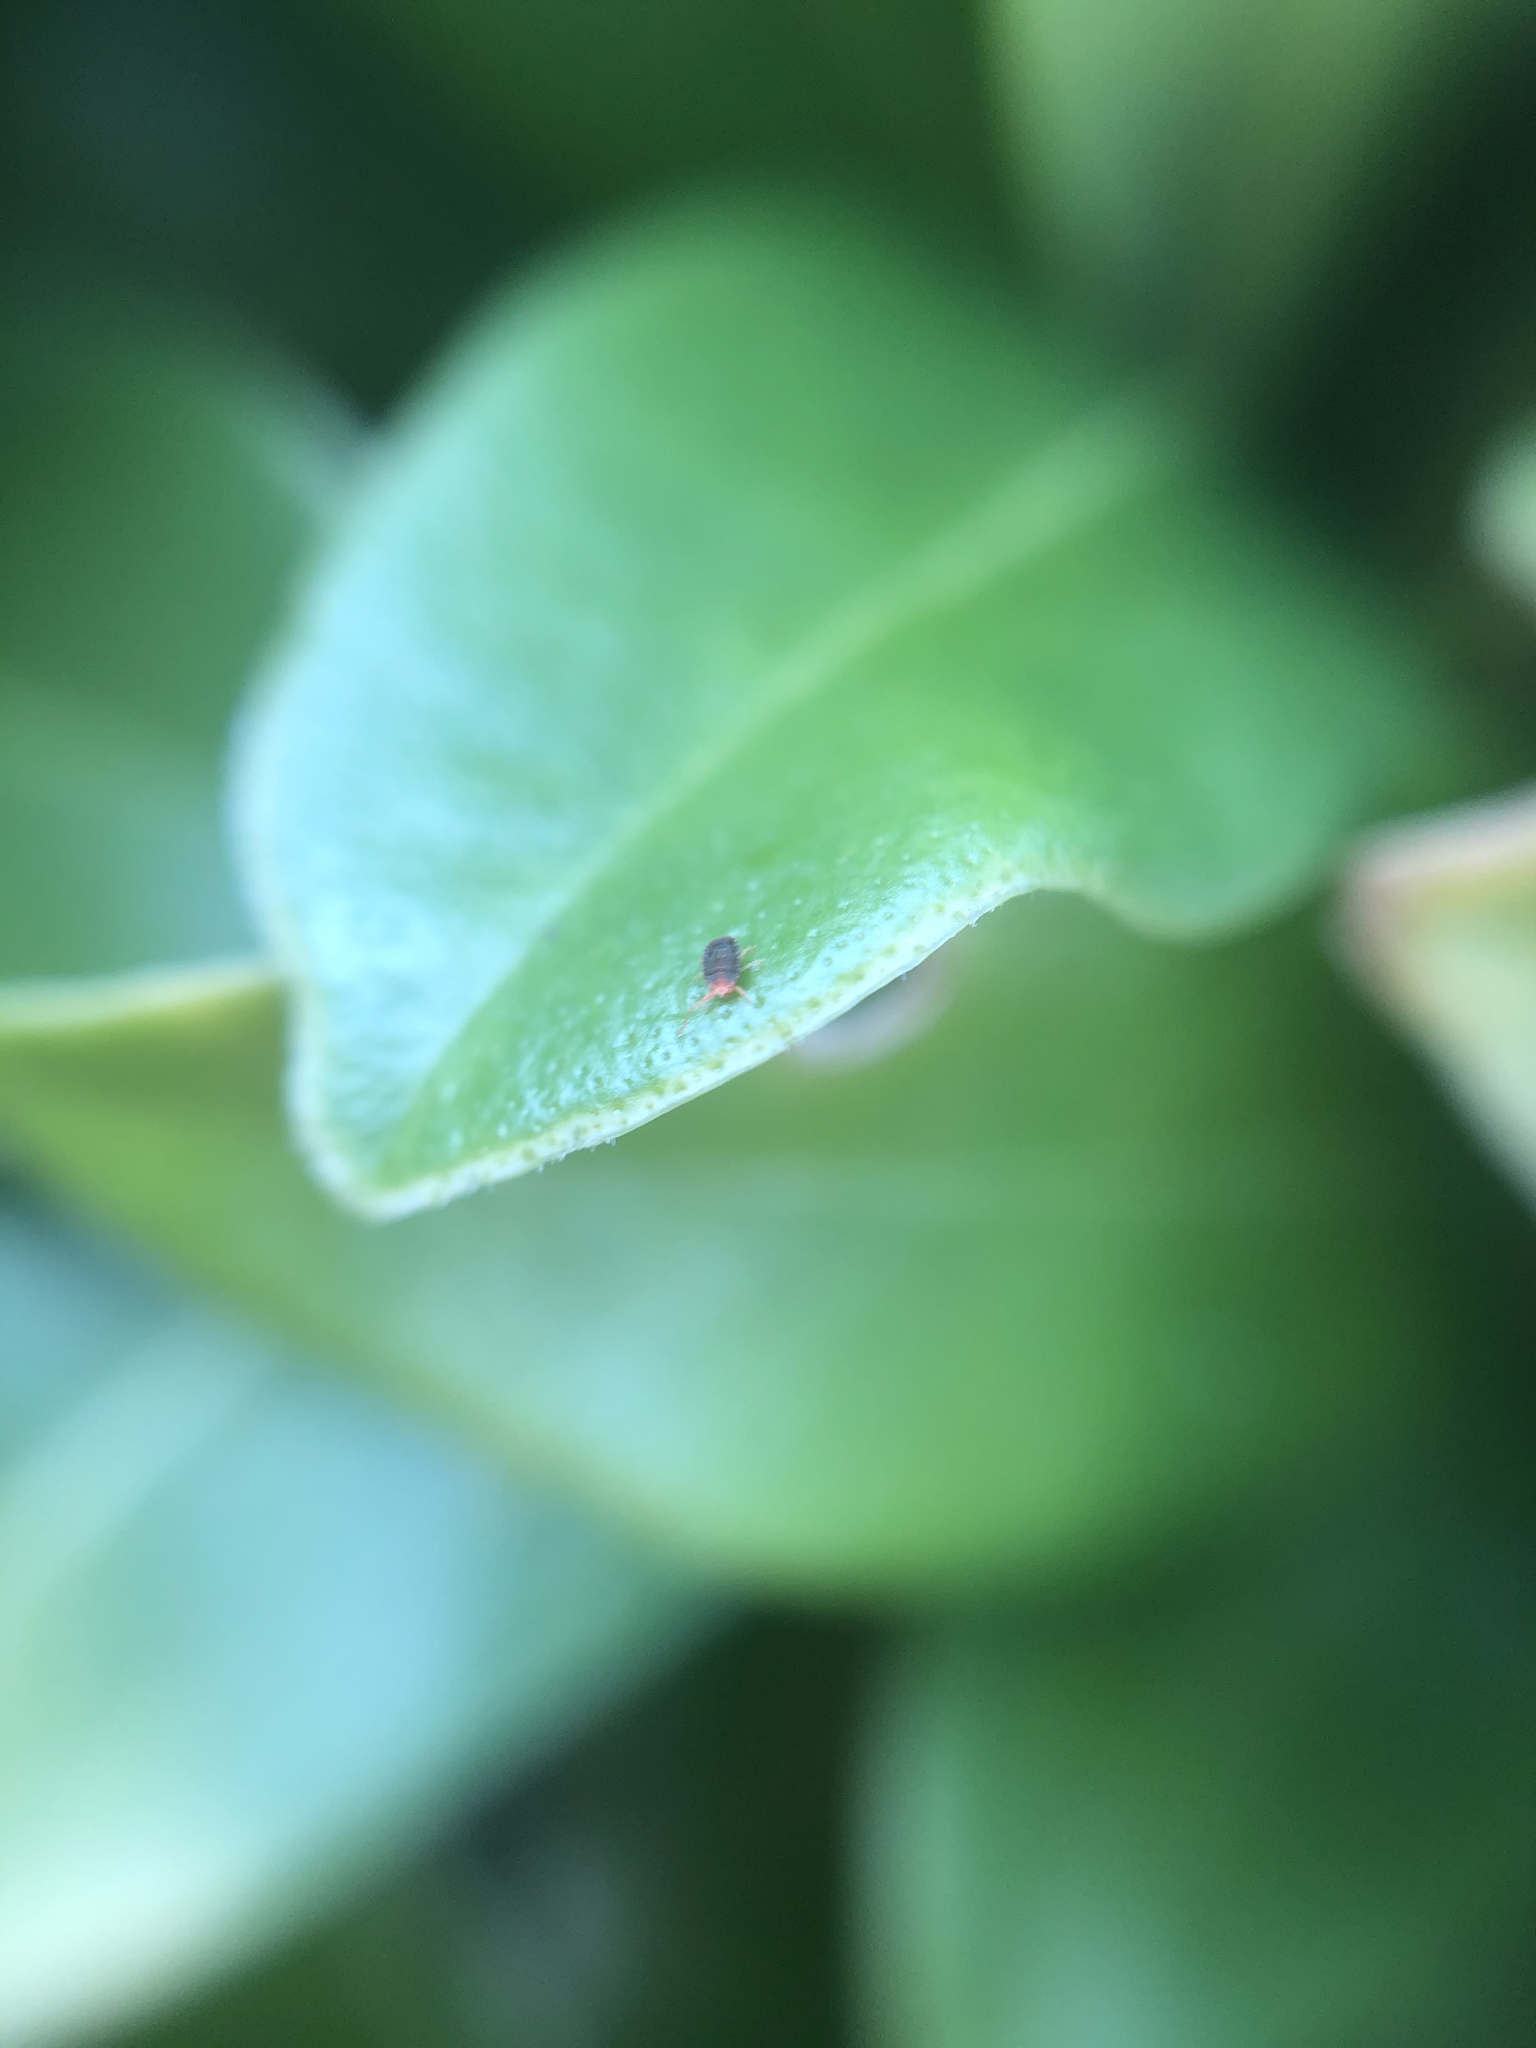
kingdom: Animalia
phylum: Arthropoda
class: Arachnida
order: Trombidiformes
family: Tetranychidae
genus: Bryobia
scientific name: Bryobia
